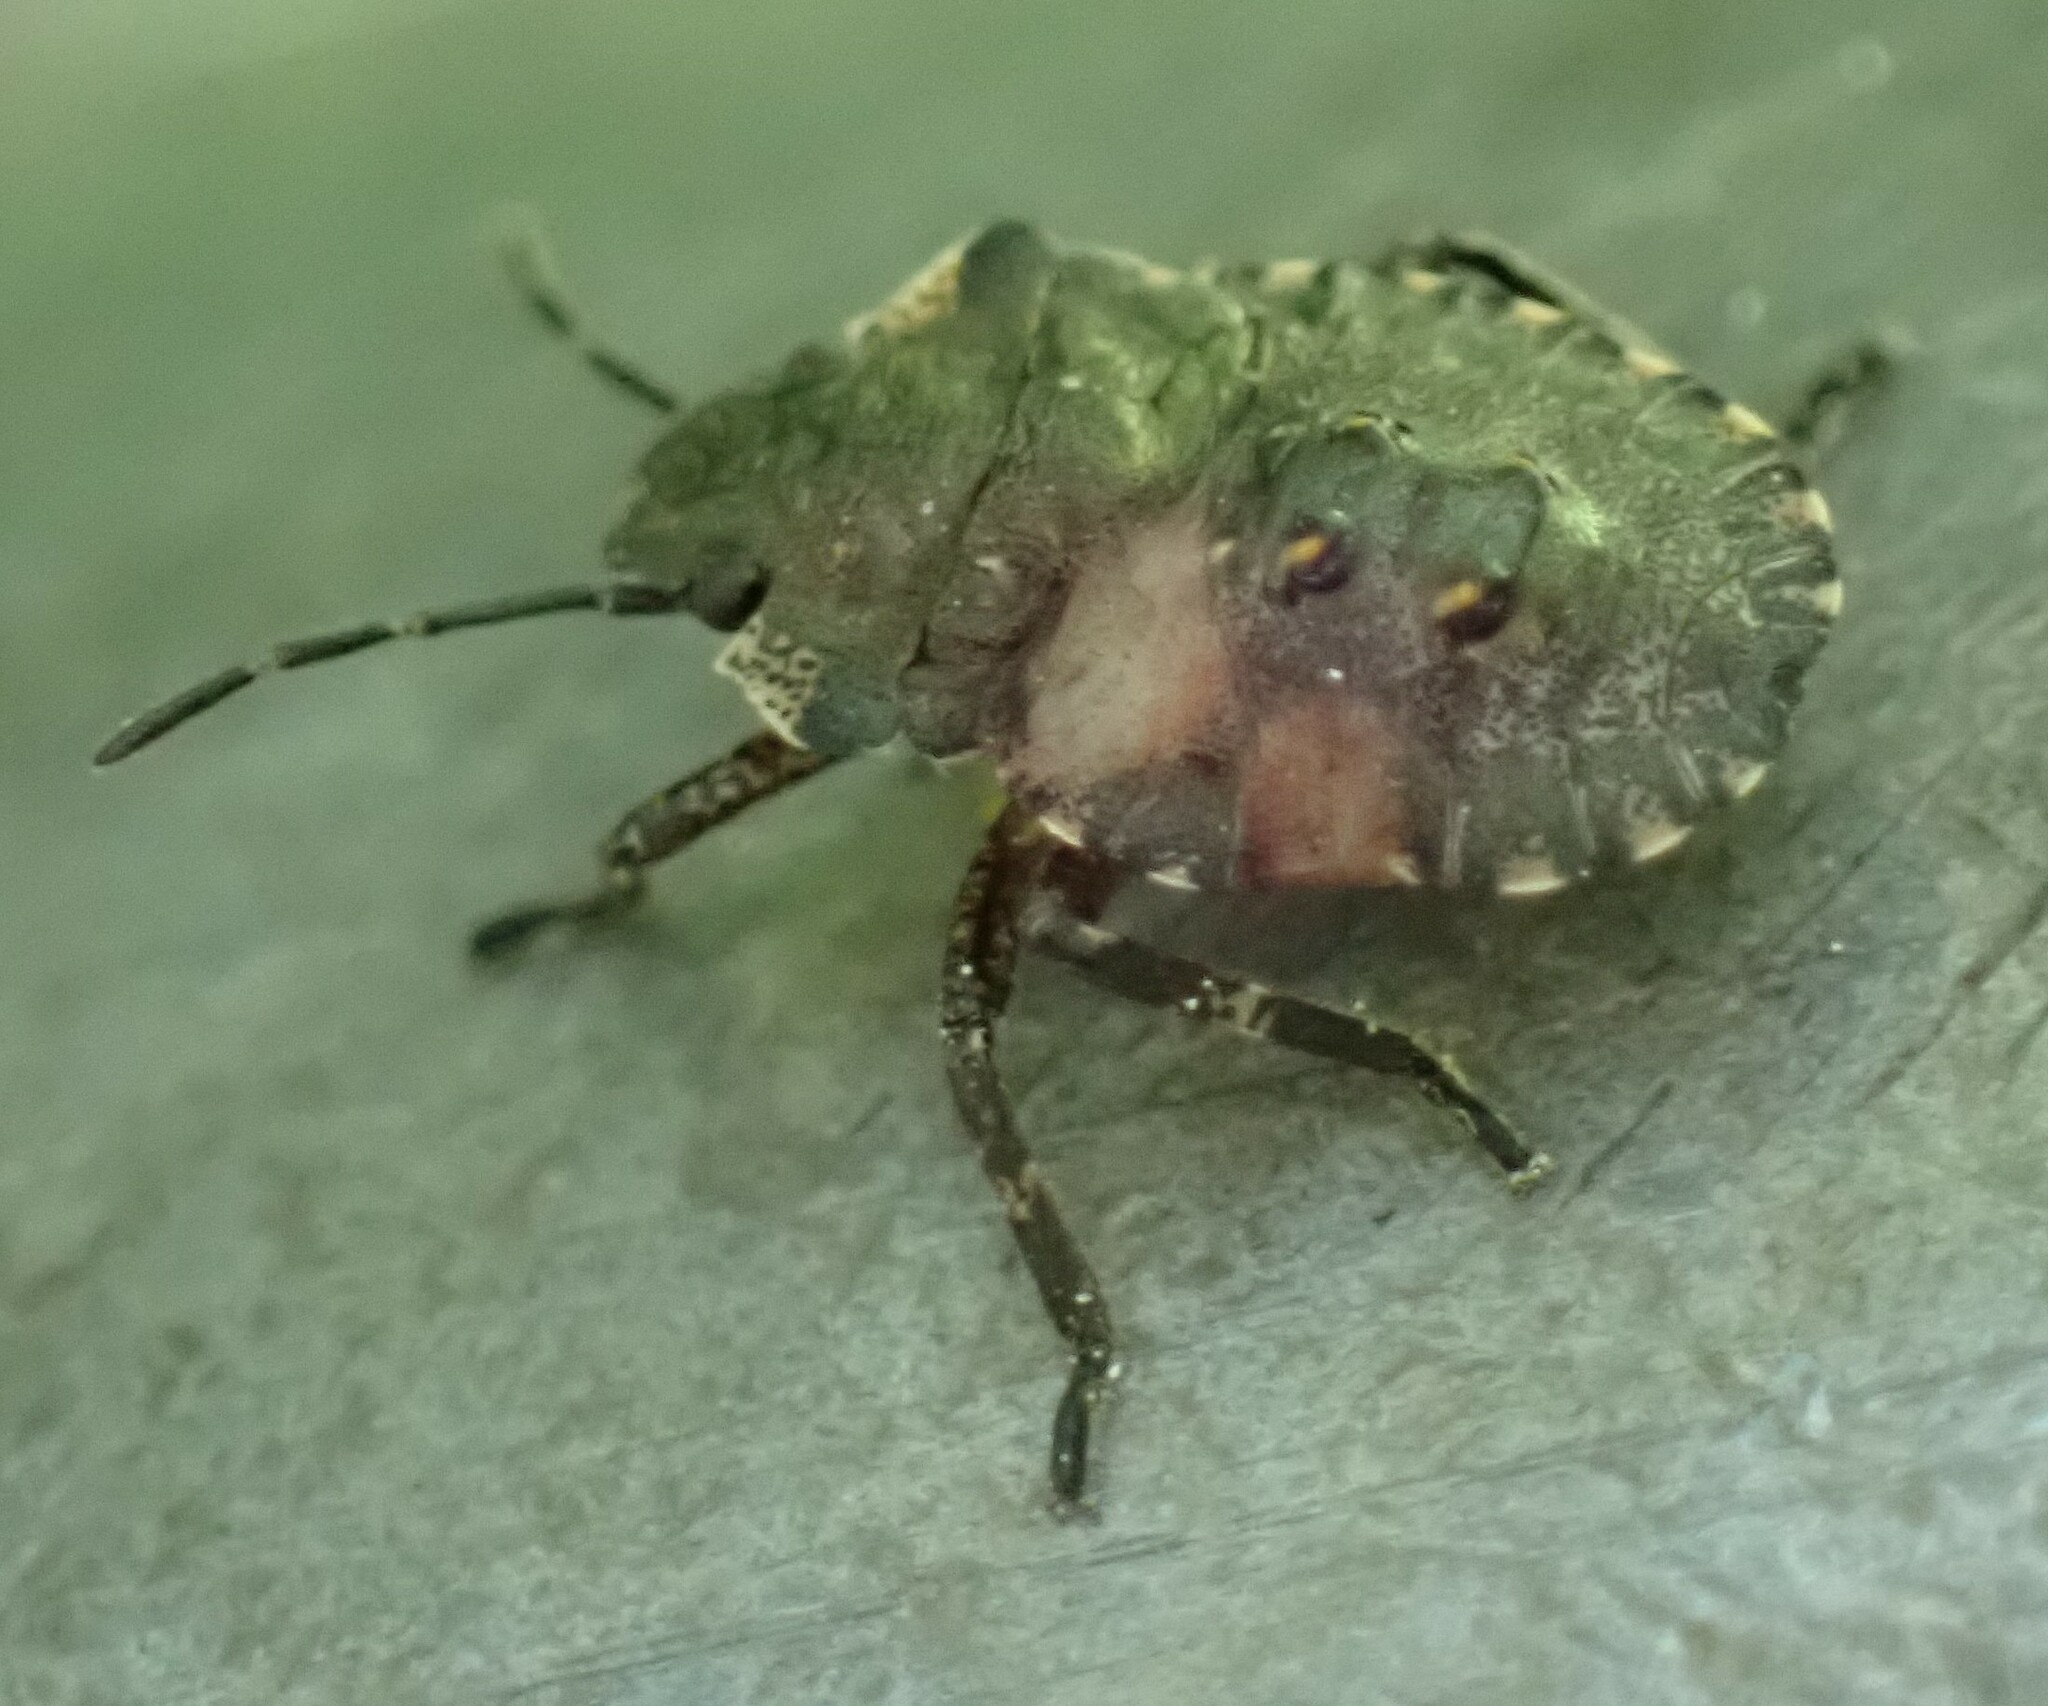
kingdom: Animalia
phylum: Arthropoda
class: Insecta
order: Hemiptera
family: Pentatomidae
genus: Pentatoma
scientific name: Pentatoma rufipes
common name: Forest bug
